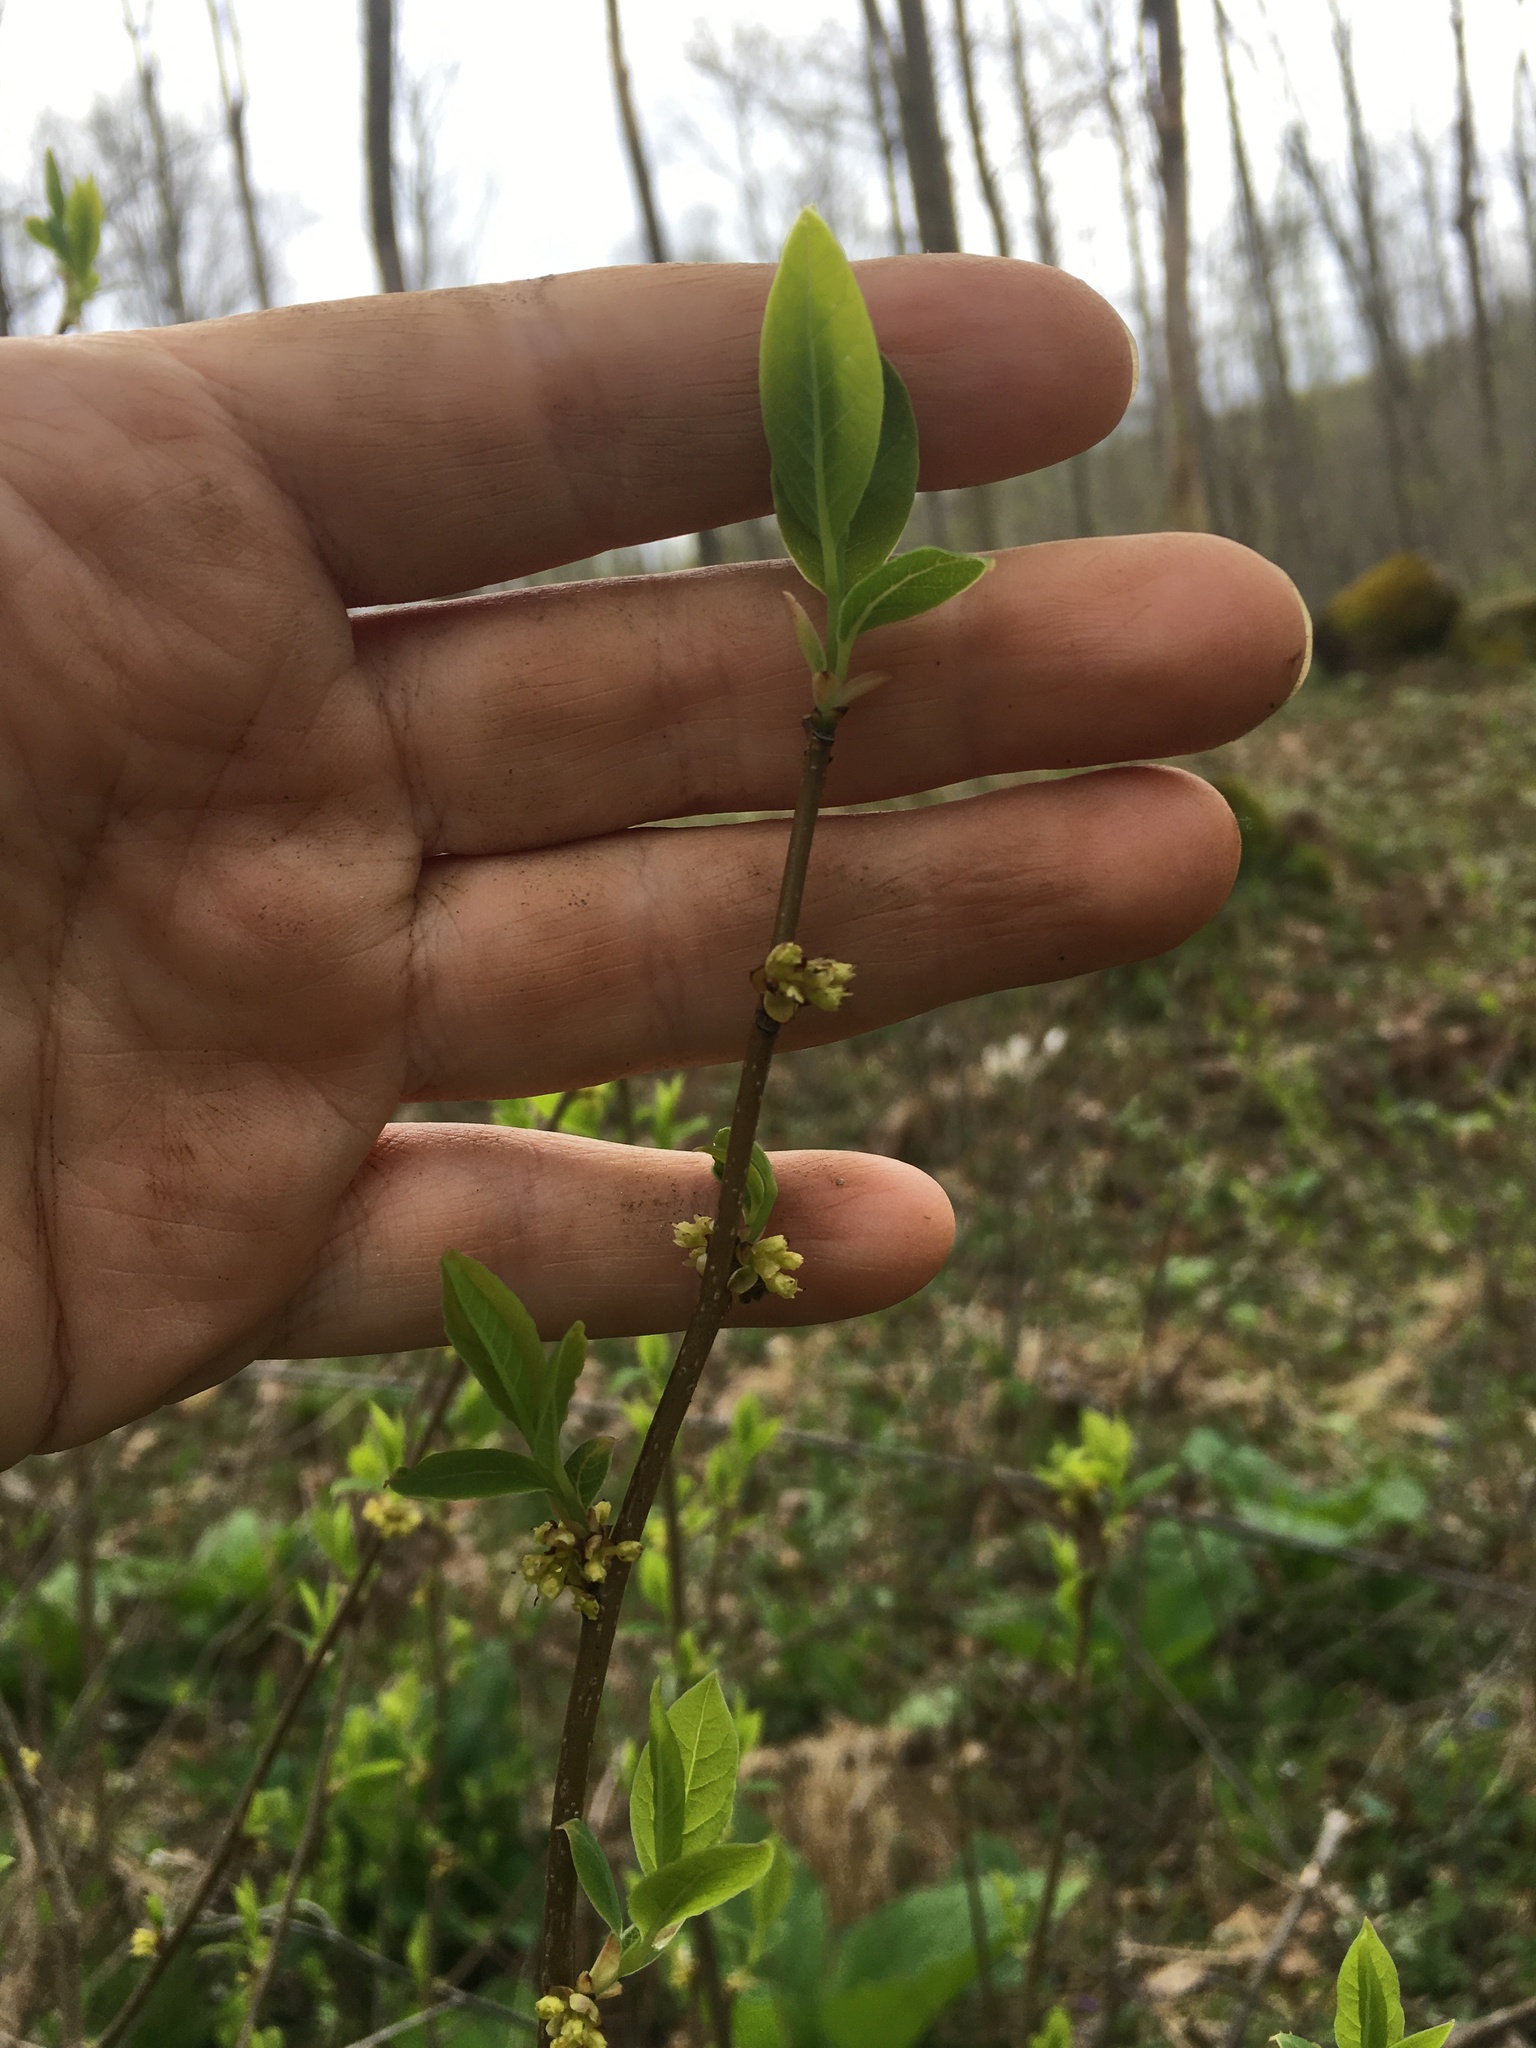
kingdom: Plantae
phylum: Tracheophyta
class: Magnoliopsida
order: Laurales
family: Lauraceae
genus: Lindera
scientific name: Lindera benzoin
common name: Spicebush
